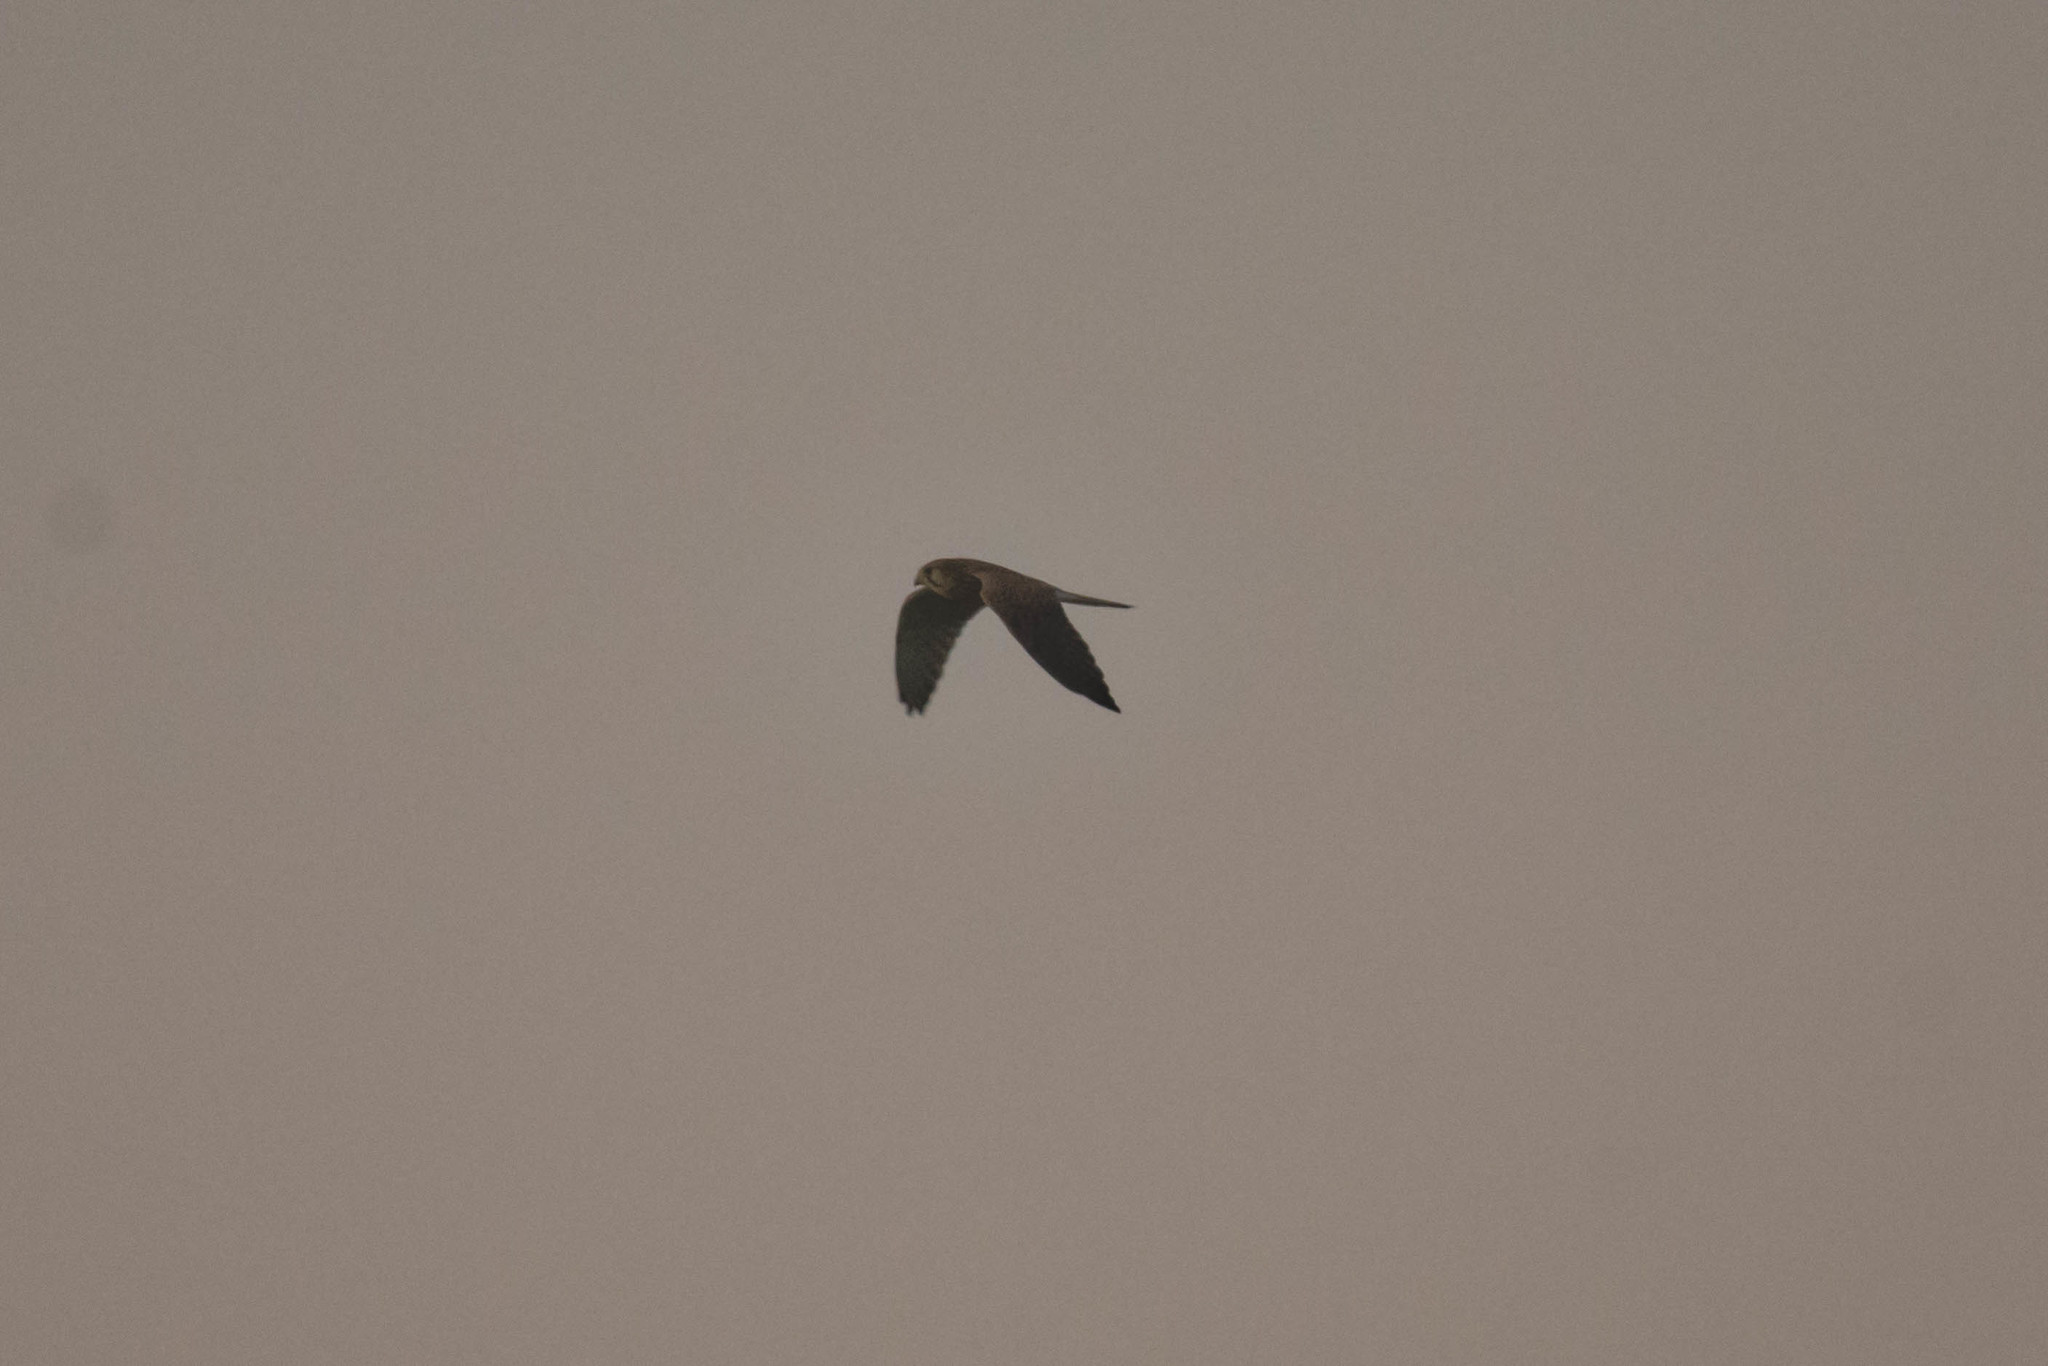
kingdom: Animalia
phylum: Chordata
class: Aves
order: Falconiformes
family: Falconidae
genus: Falco
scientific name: Falco tinnunculus
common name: Common kestrel
